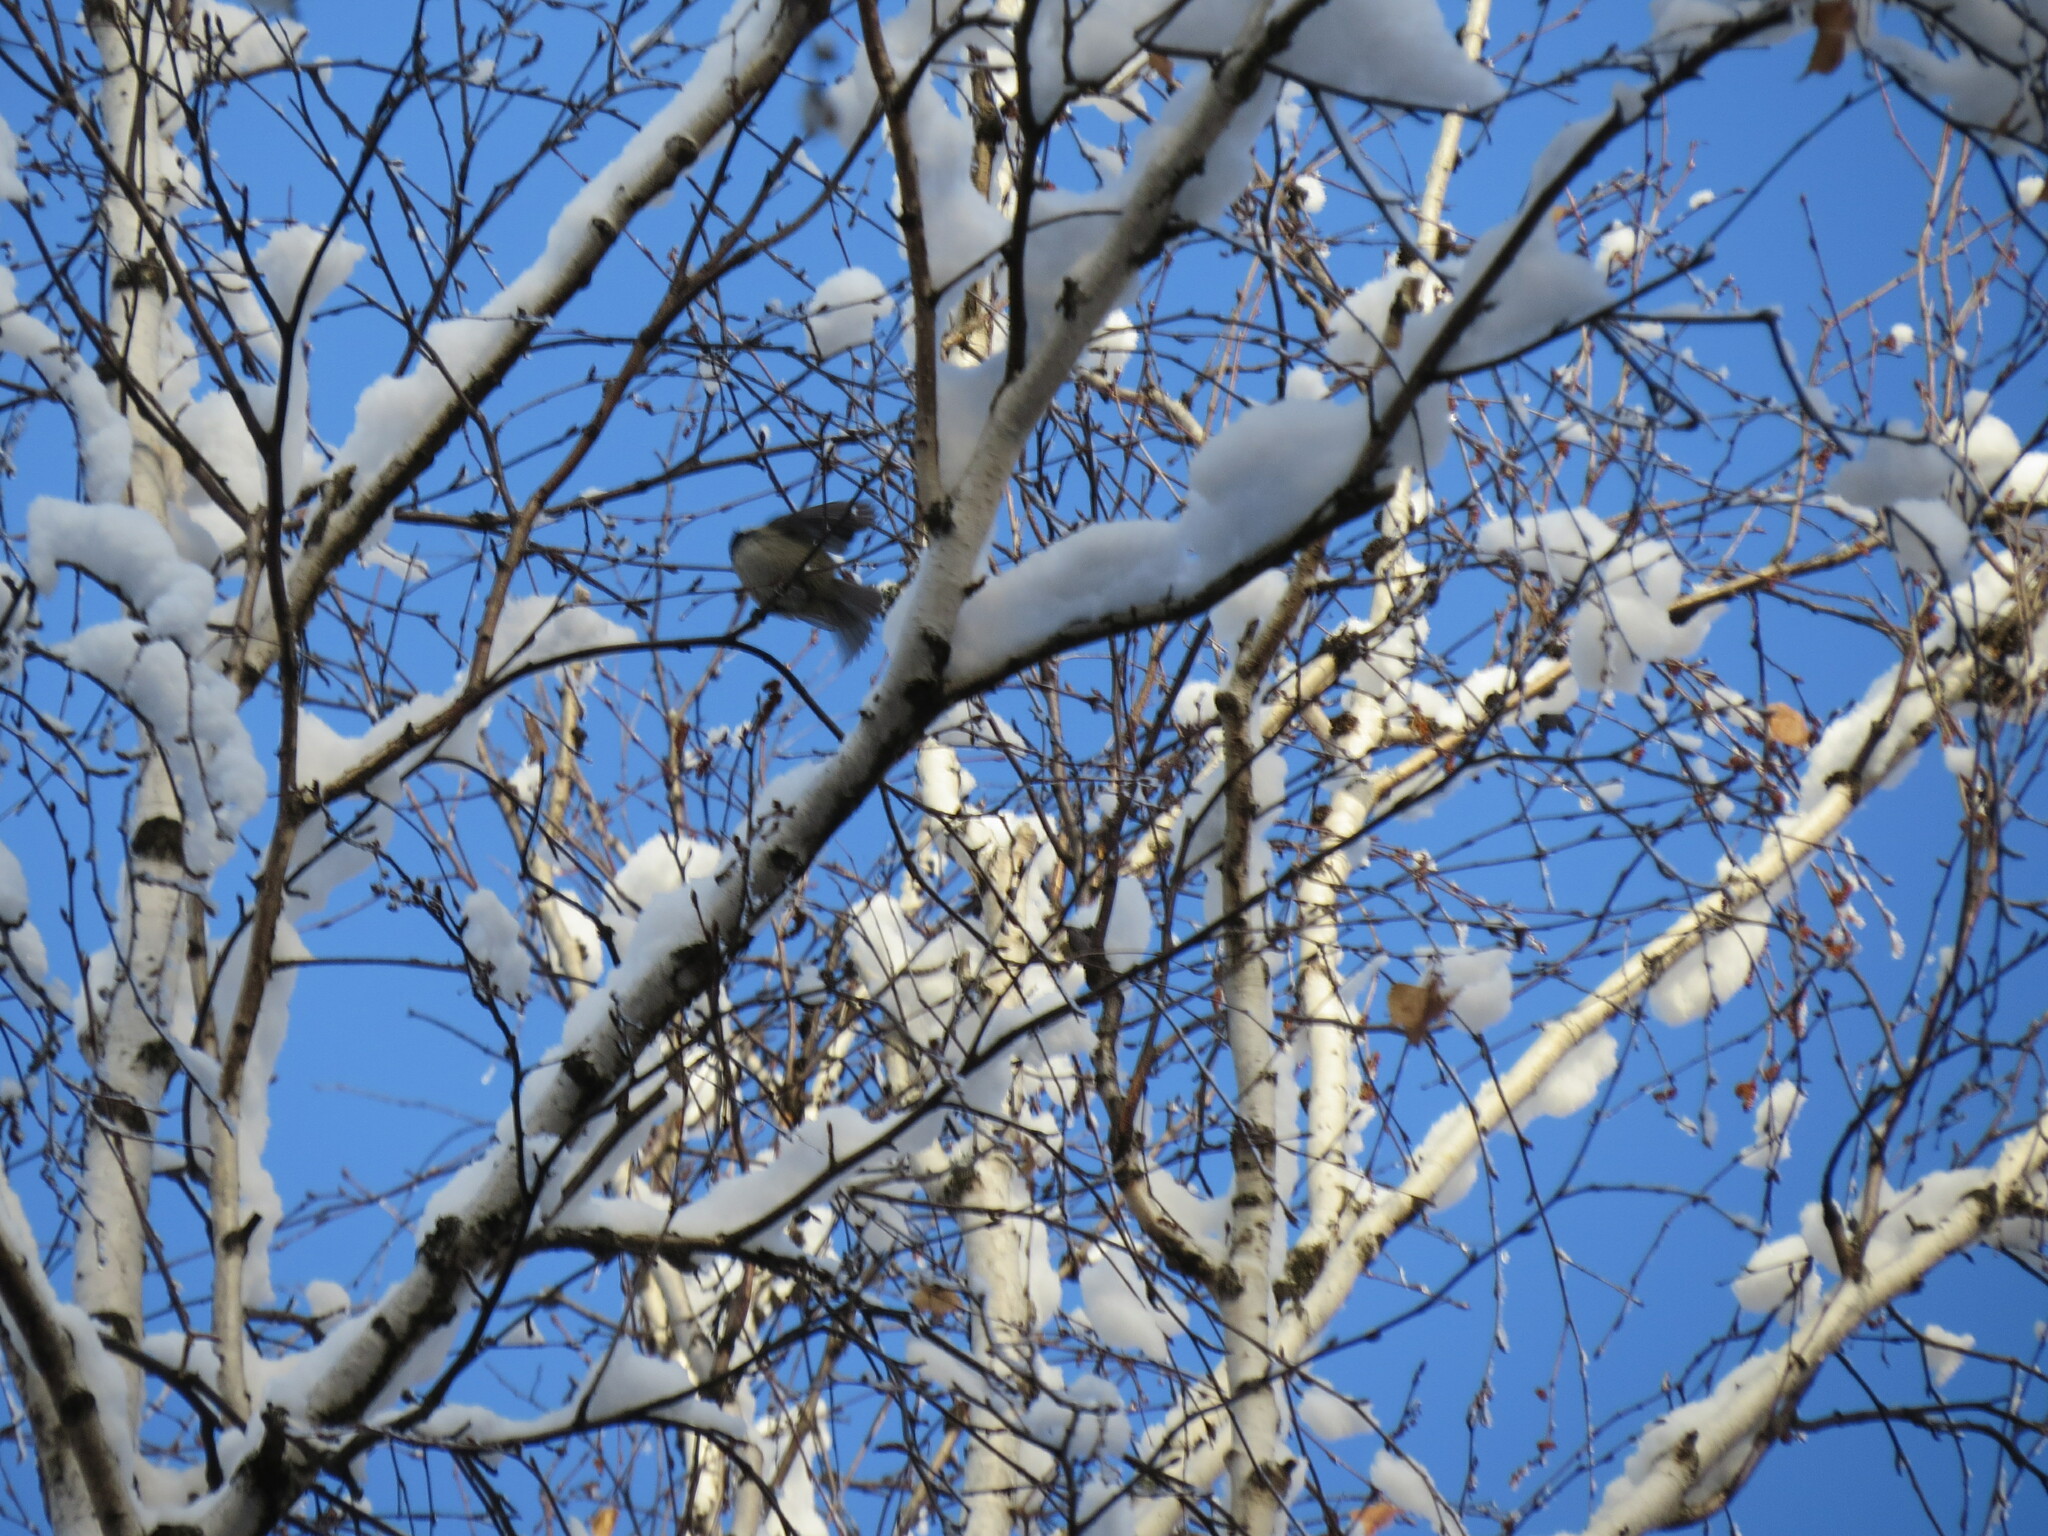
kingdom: Animalia
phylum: Chordata
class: Aves
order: Passeriformes
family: Paridae
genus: Periparus
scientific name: Periparus ater
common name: Coal tit
